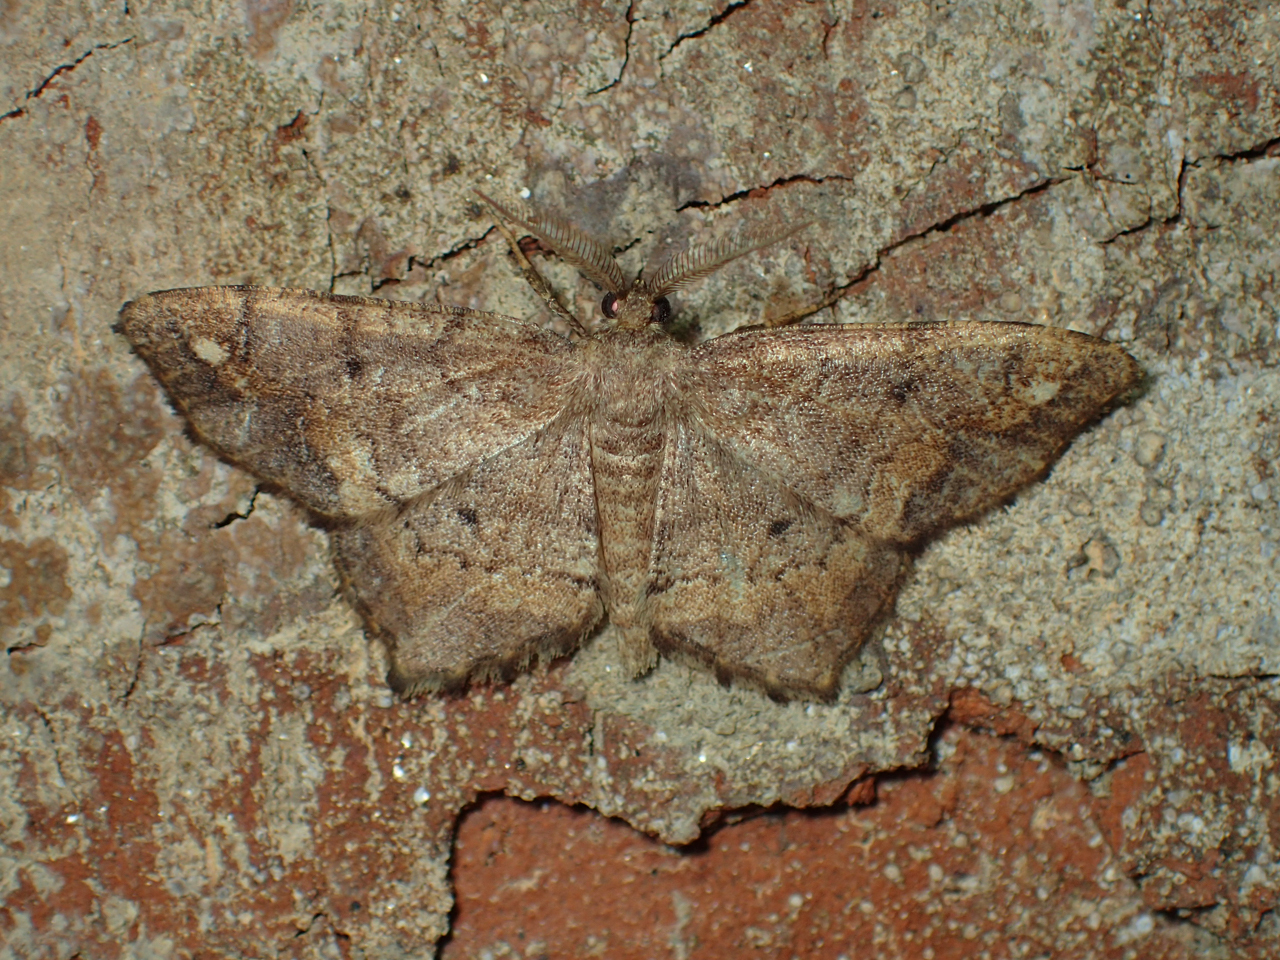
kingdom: Animalia
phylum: Arthropoda
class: Insecta
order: Lepidoptera
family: Geometridae
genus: Hypagyrtis
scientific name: Hypagyrtis unipunctata
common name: One-spotted variant
